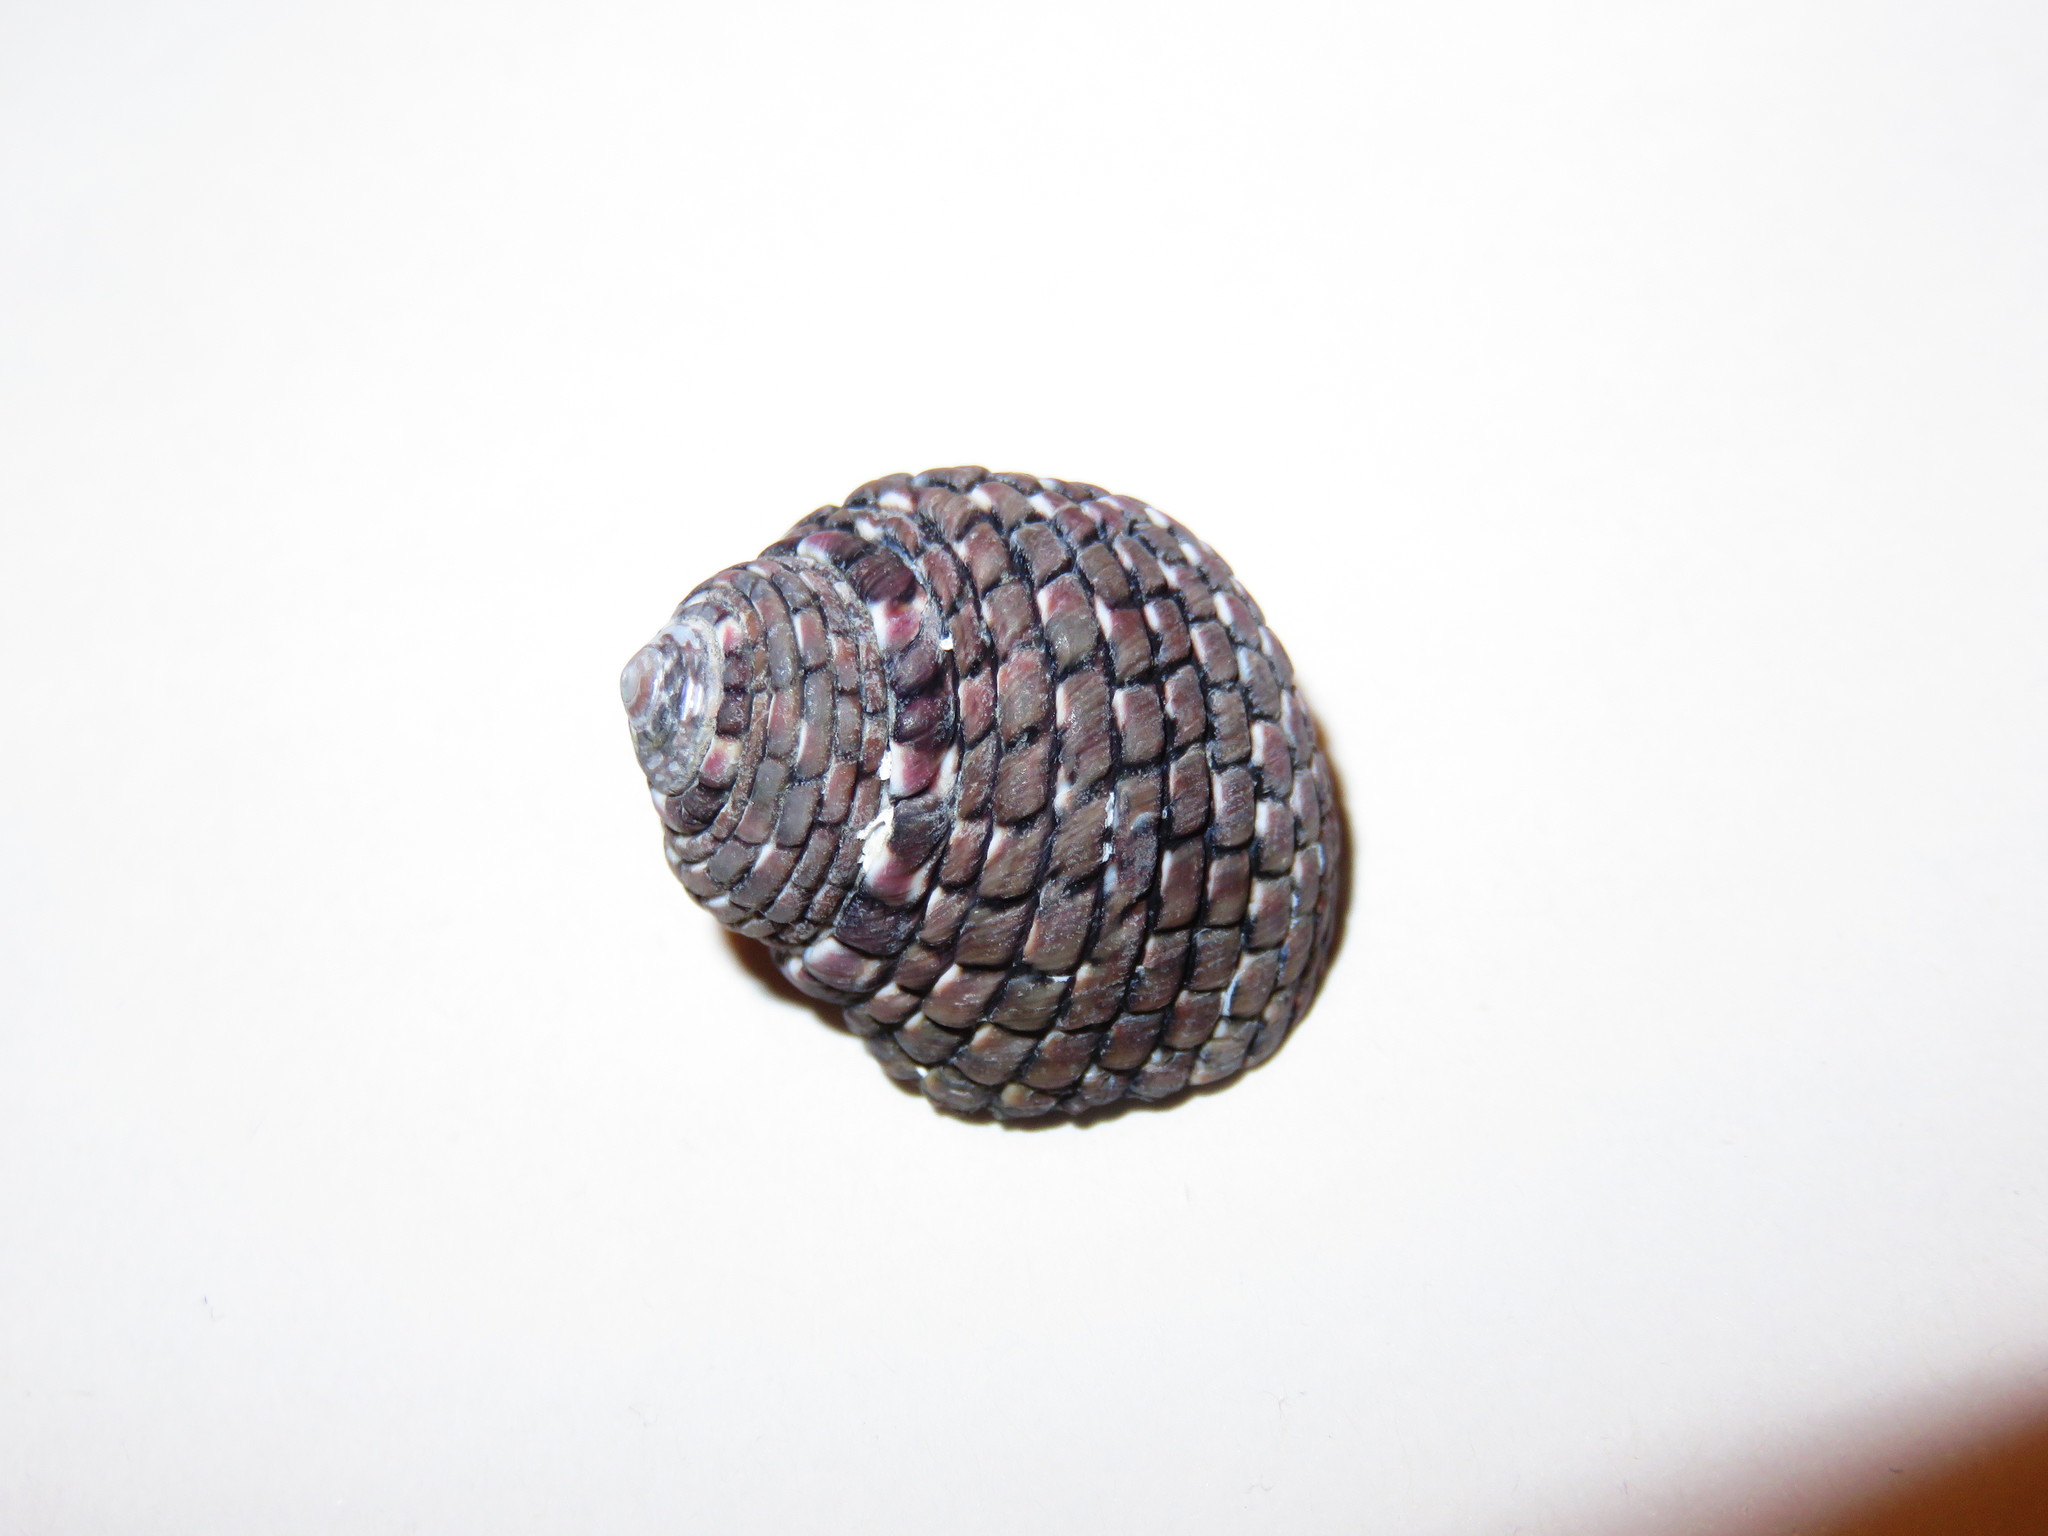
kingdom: Animalia
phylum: Mollusca
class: Gastropoda
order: Trochida
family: Trochidae
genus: Monodonta
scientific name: Monodonta confusa
